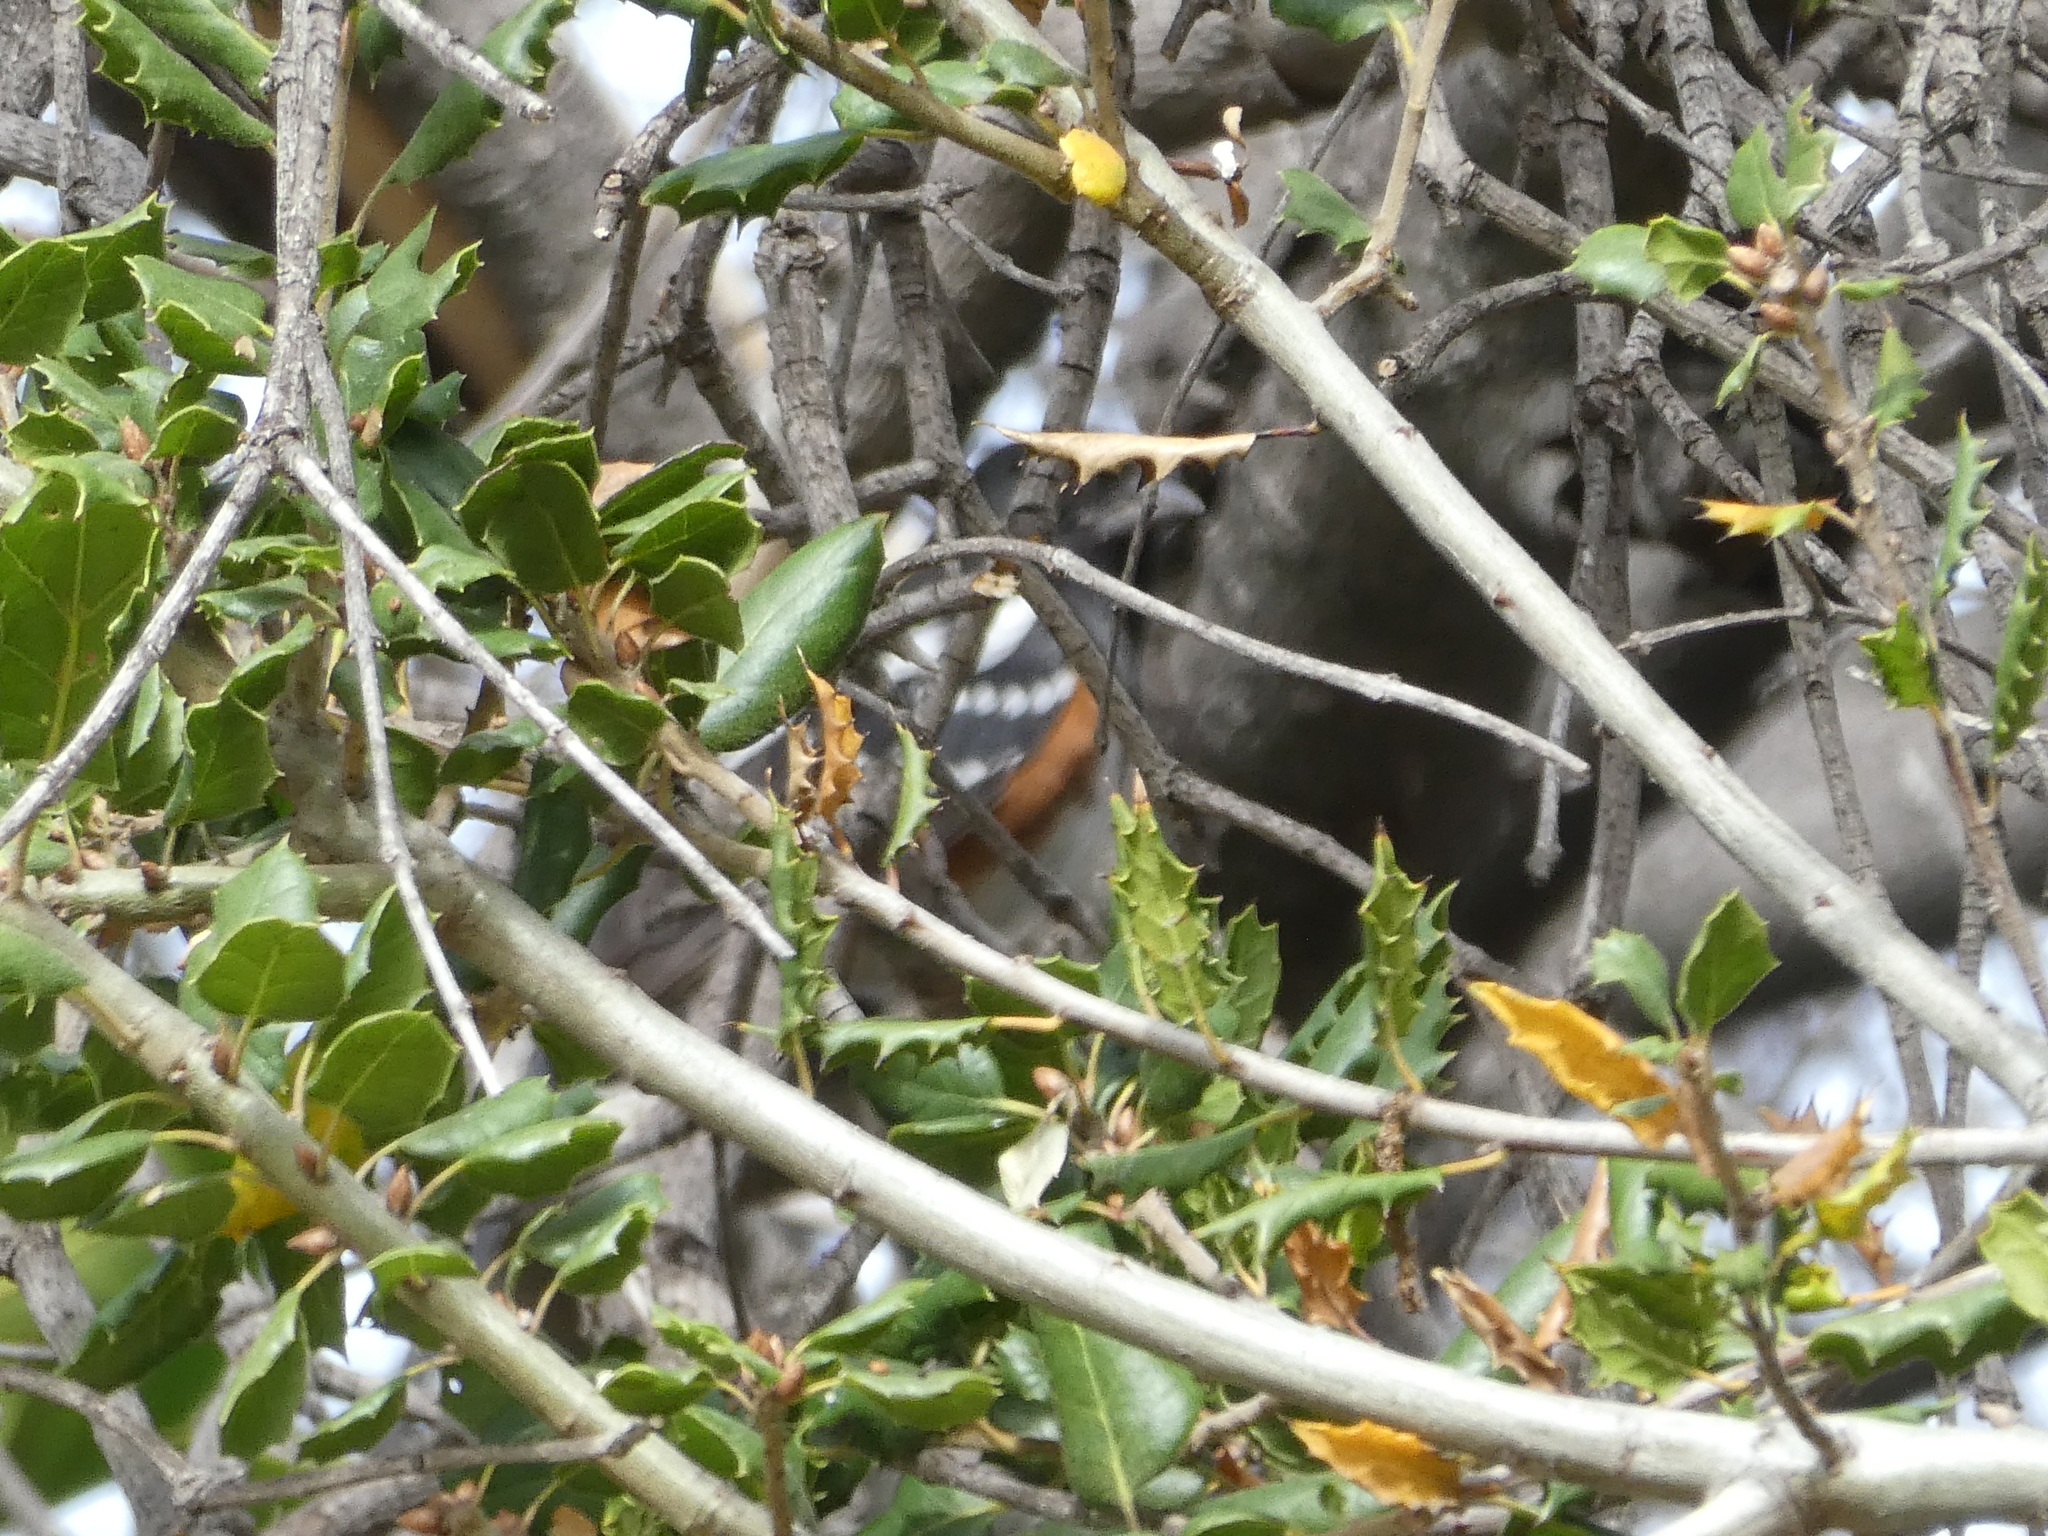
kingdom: Animalia
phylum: Chordata
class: Aves
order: Passeriformes
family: Passerellidae
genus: Pipilo
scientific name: Pipilo maculatus
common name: Spotted towhee
